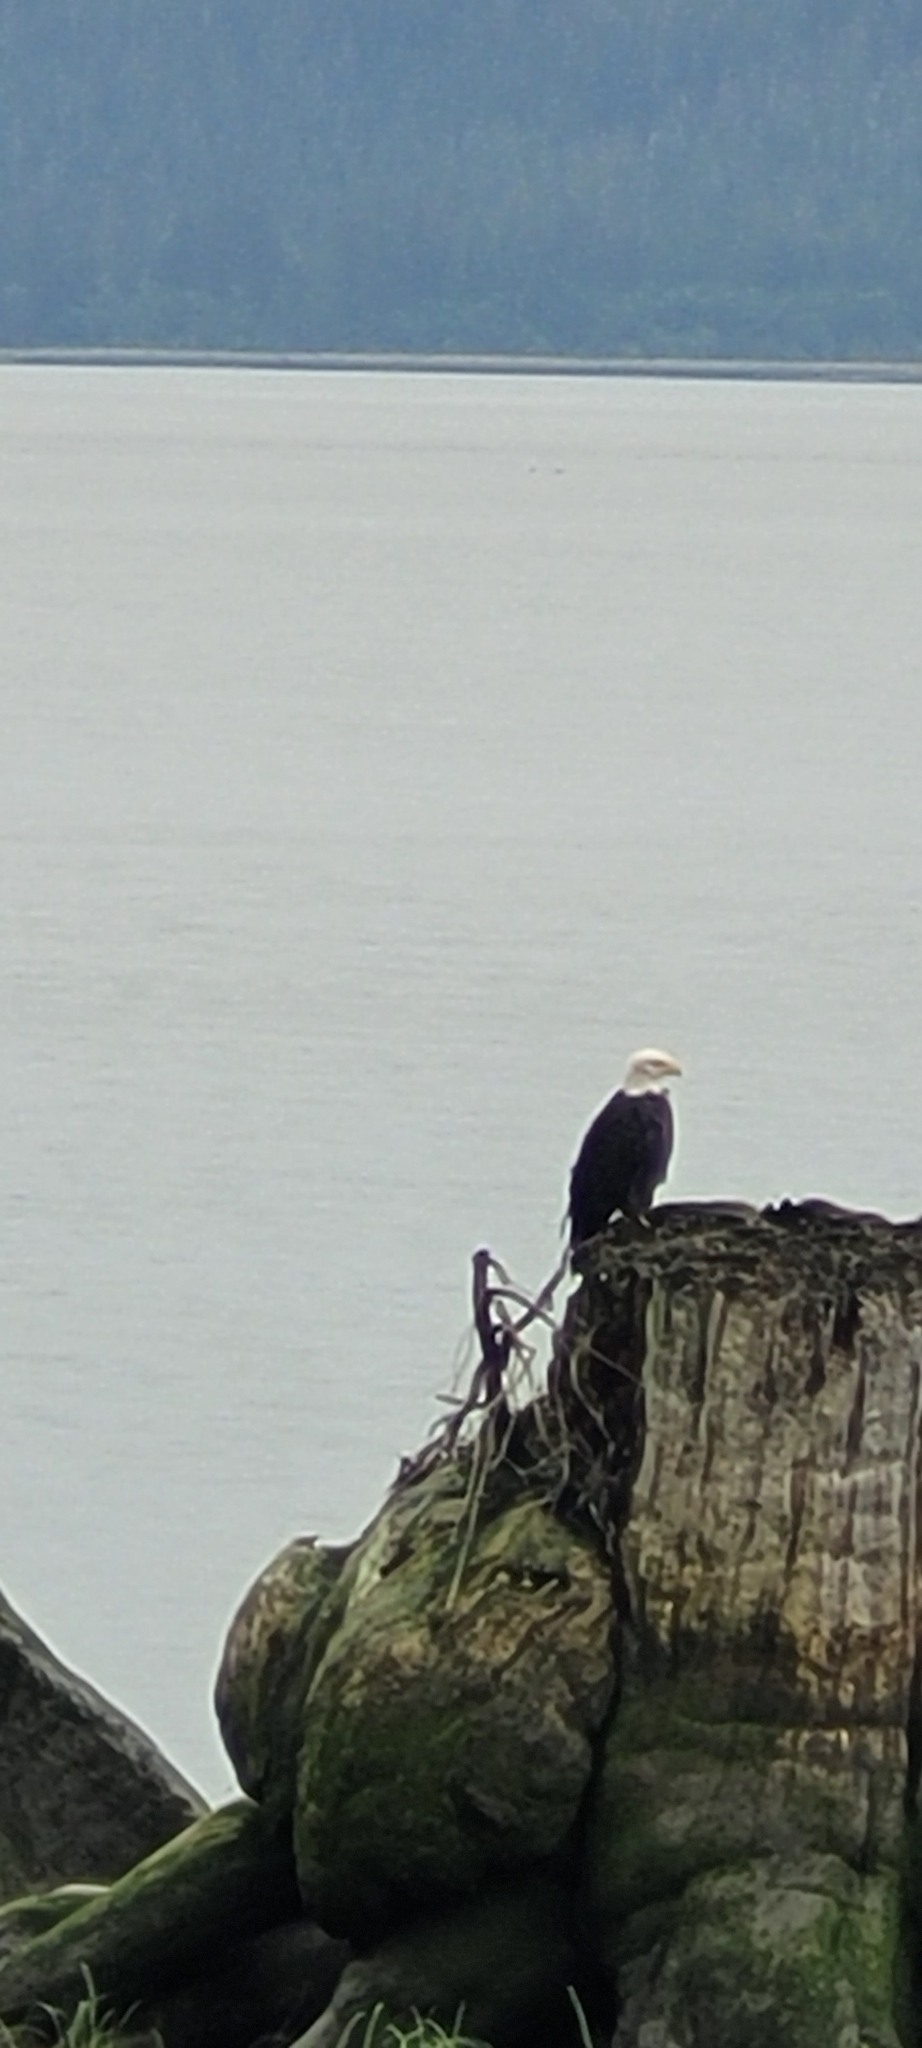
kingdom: Animalia
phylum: Chordata
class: Aves
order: Accipitriformes
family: Accipitridae
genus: Haliaeetus
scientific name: Haliaeetus leucocephalus
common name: Bald eagle
